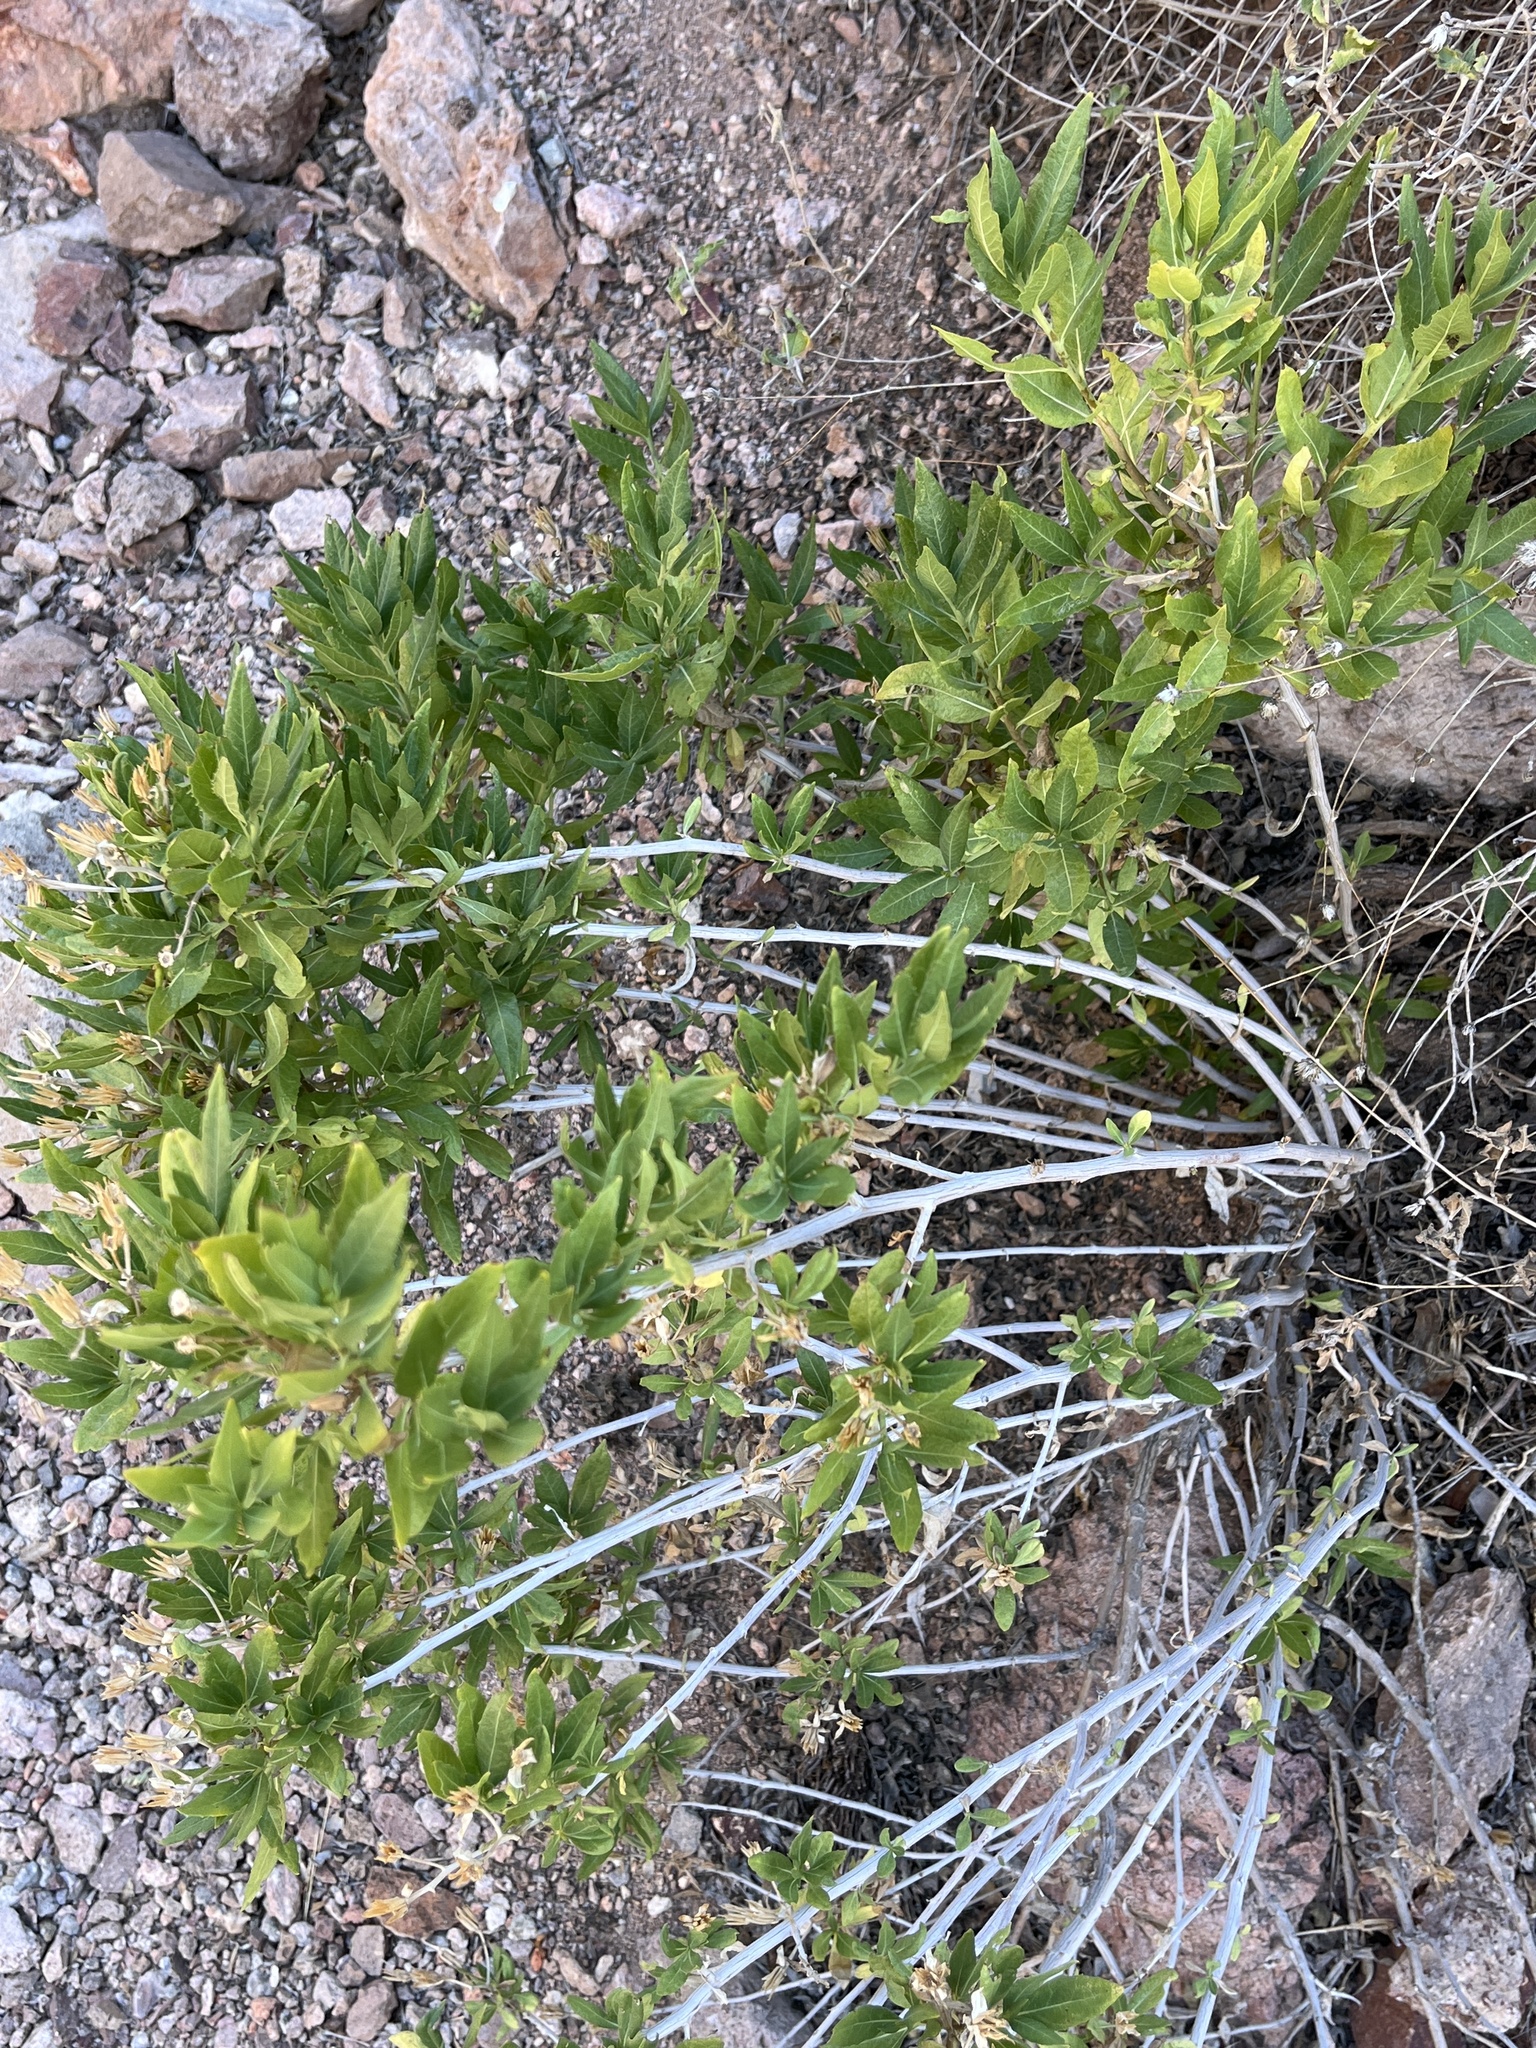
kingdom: Plantae
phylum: Tracheophyta
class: Magnoliopsida
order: Asterales
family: Asteraceae
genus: Trixis
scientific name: Trixis californica
